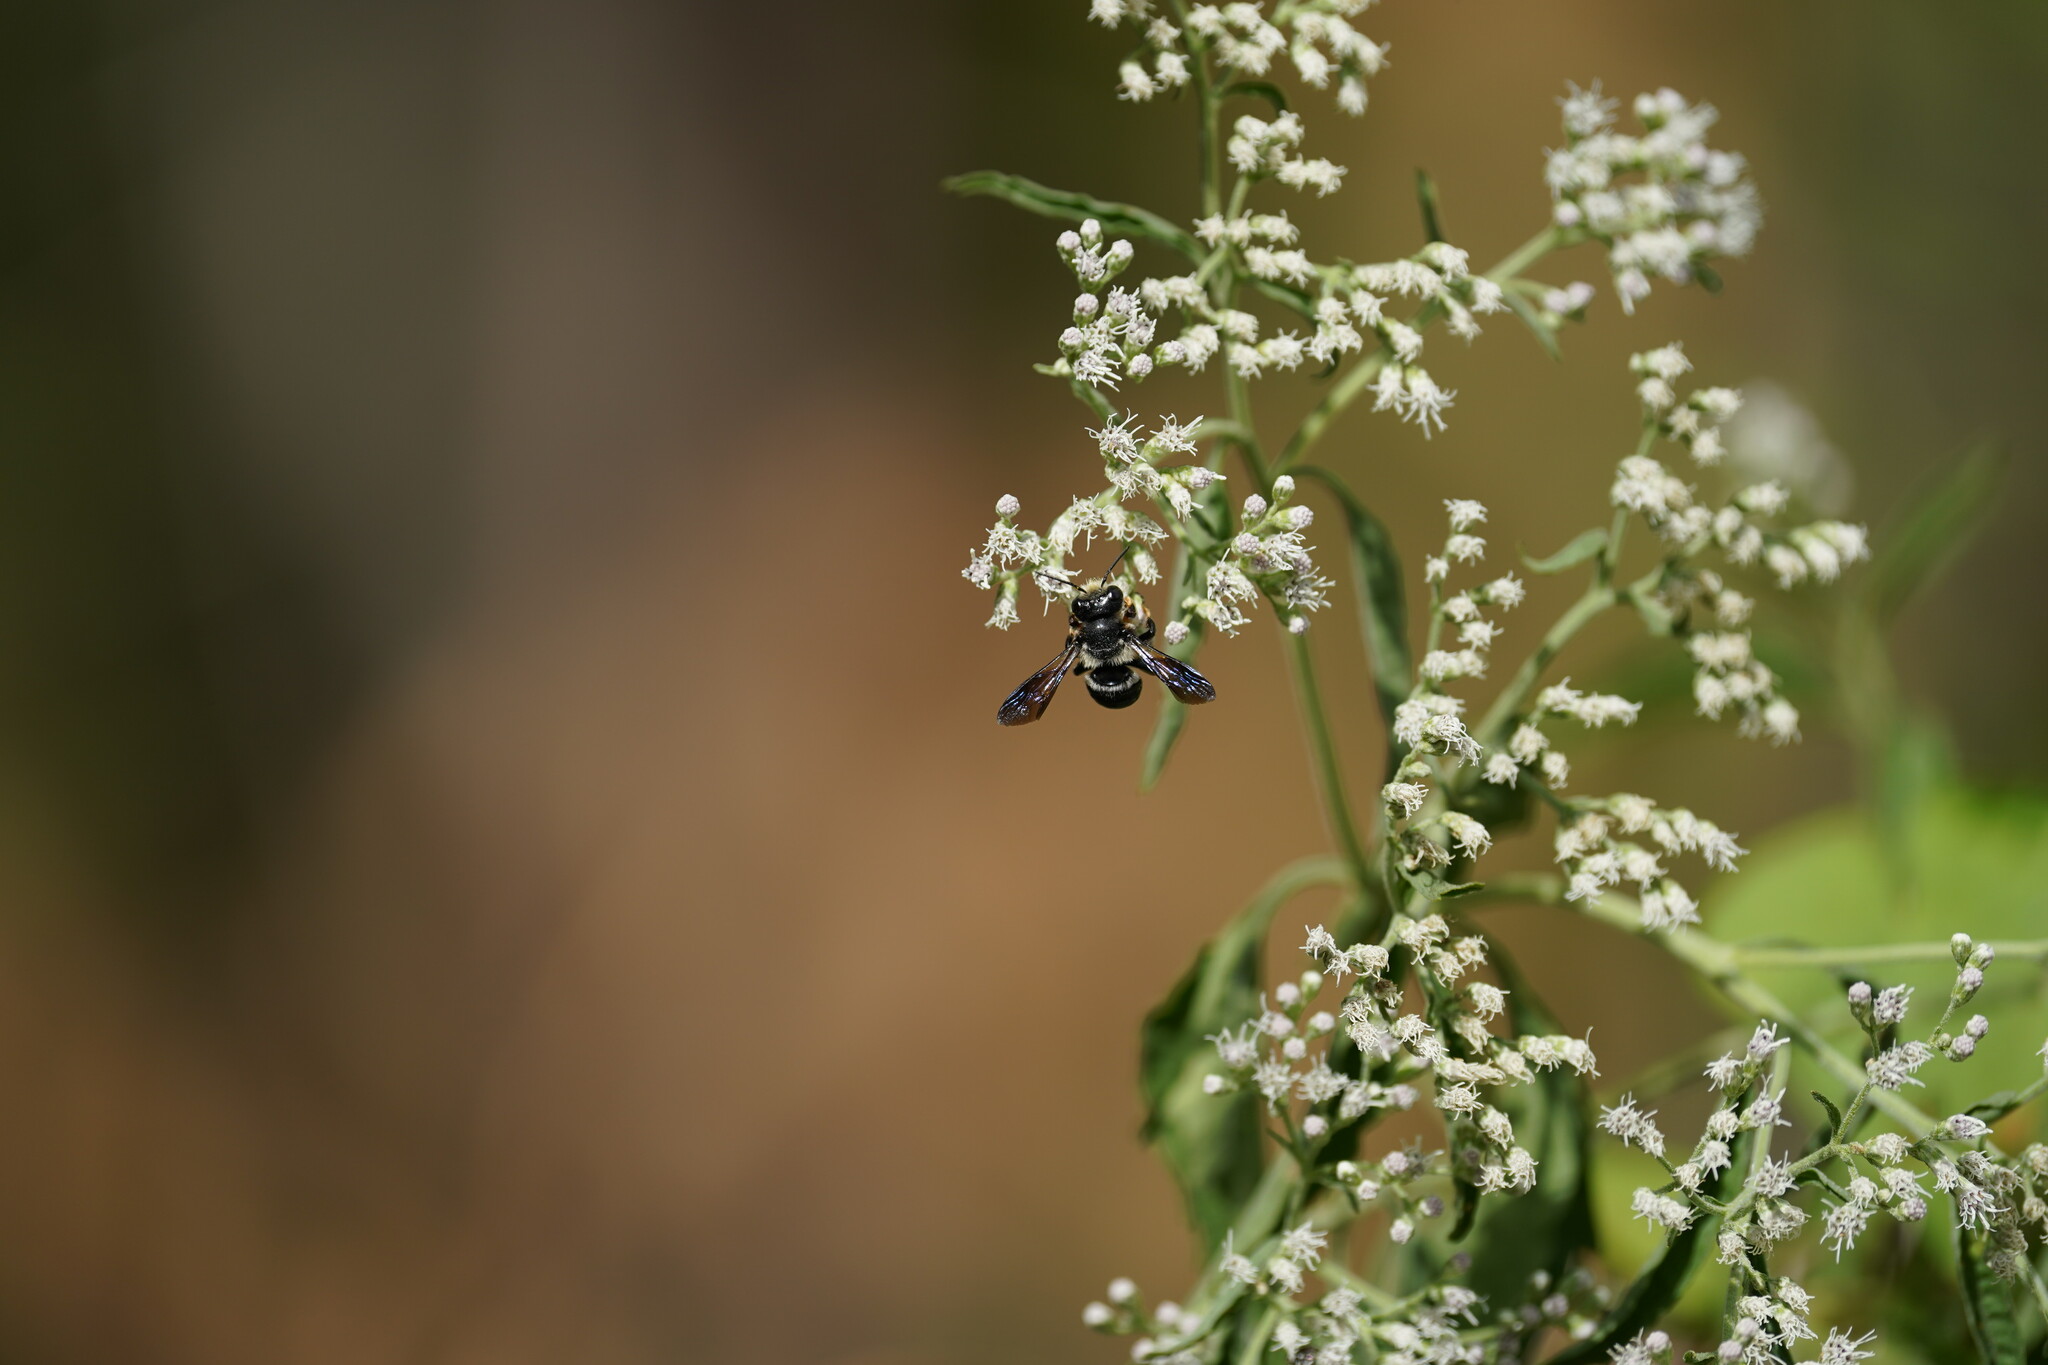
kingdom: Animalia
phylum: Arthropoda
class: Insecta
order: Hymenoptera
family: Megachilidae
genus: Megachile
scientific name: Megachile xylocopoides
